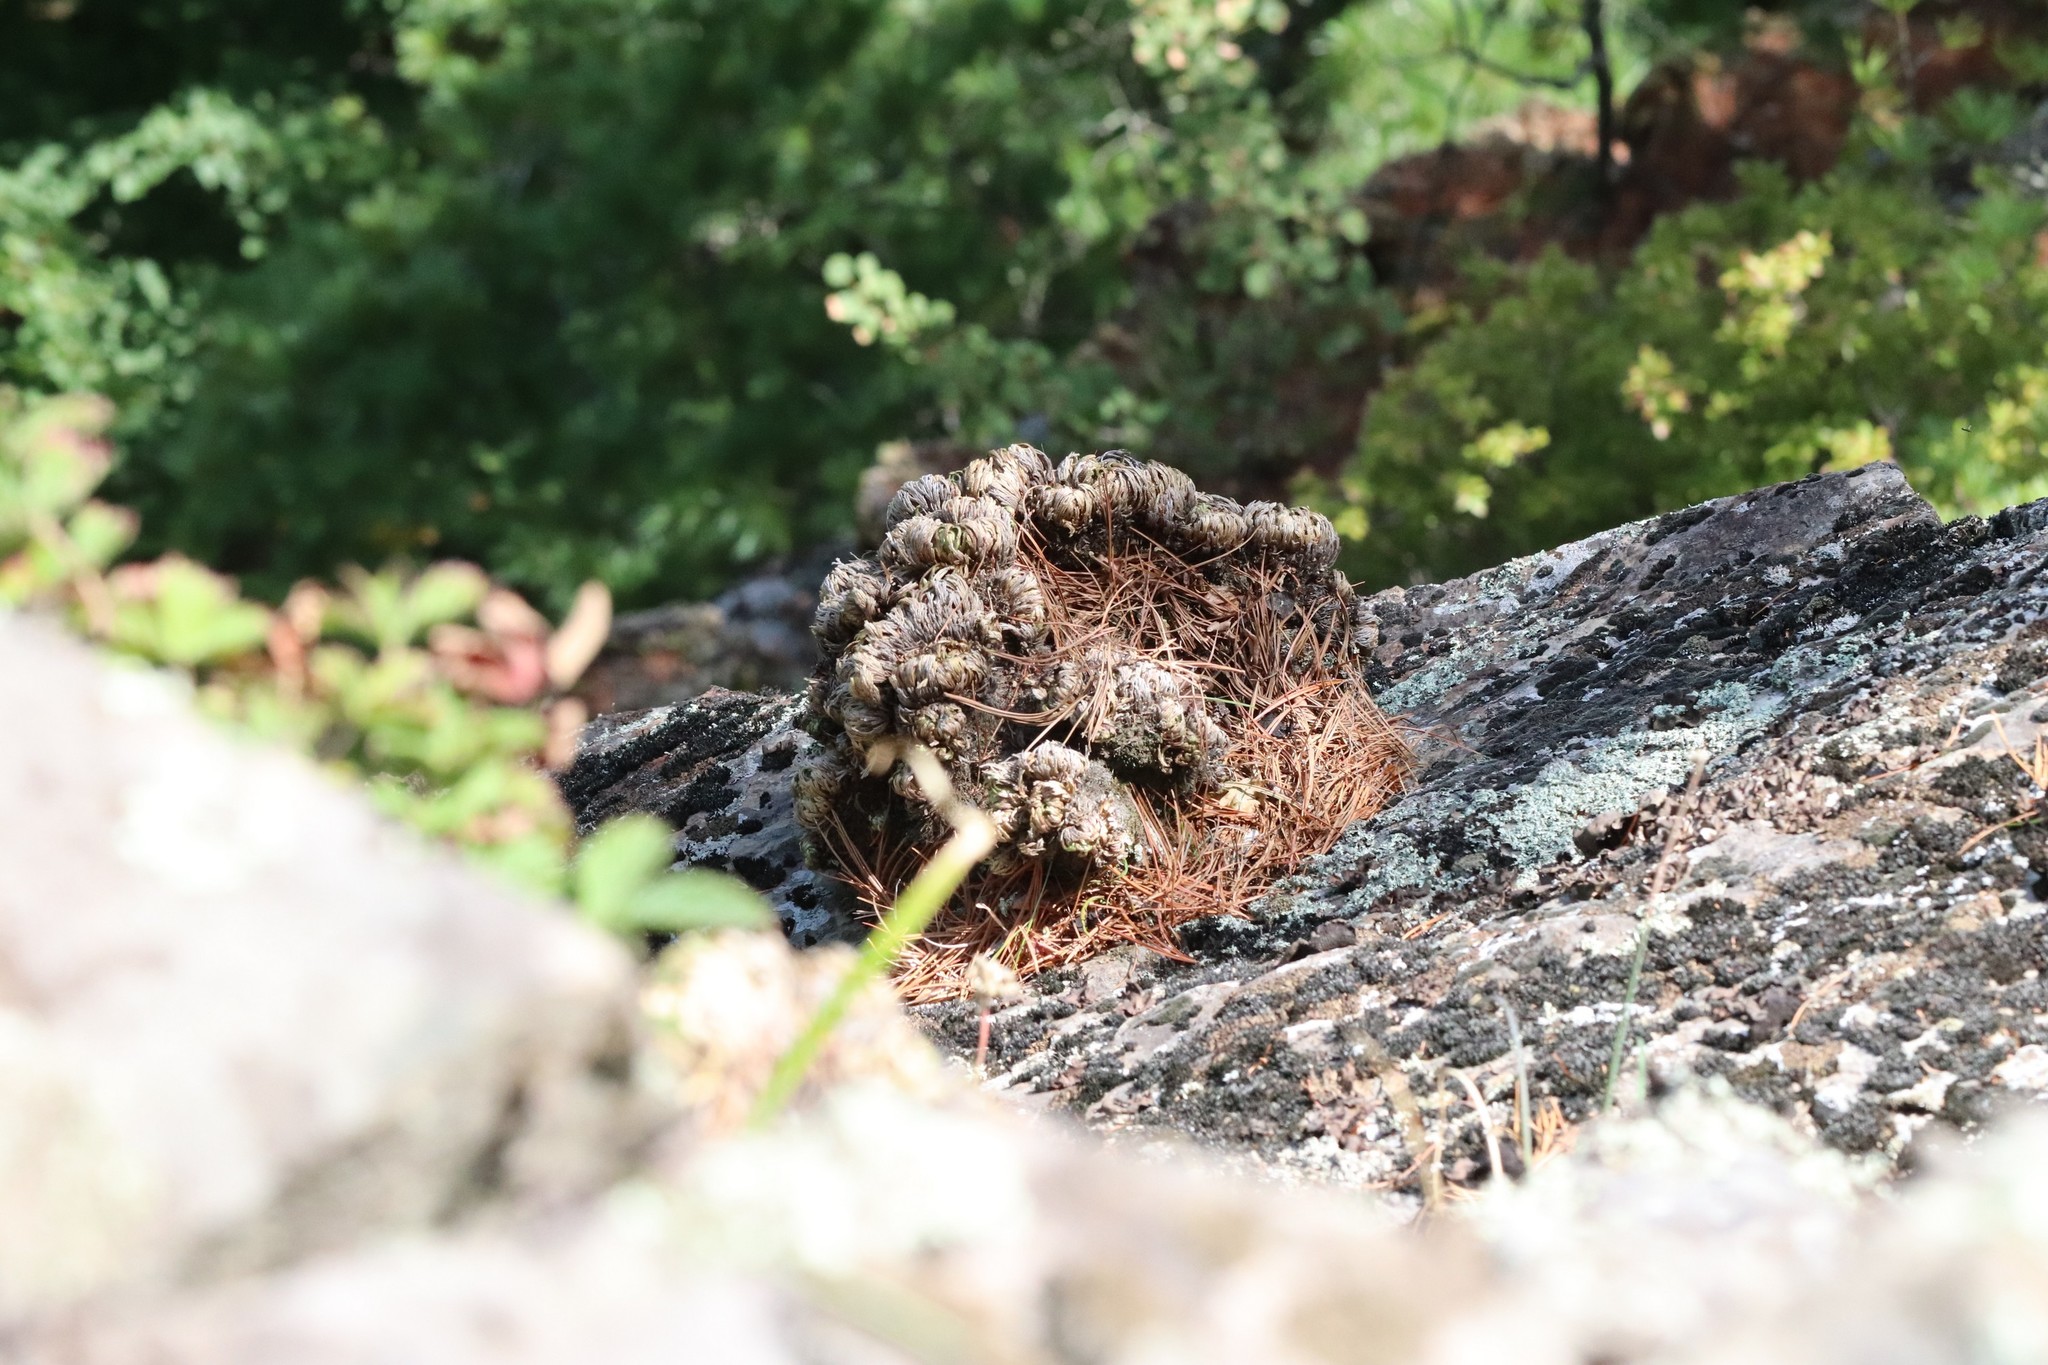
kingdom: Plantae
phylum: Tracheophyta
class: Lycopodiopsida
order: Selaginellales
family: Selaginellaceae
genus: Selaginella
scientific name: Selaginella tamariscina
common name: Little-club-moss
